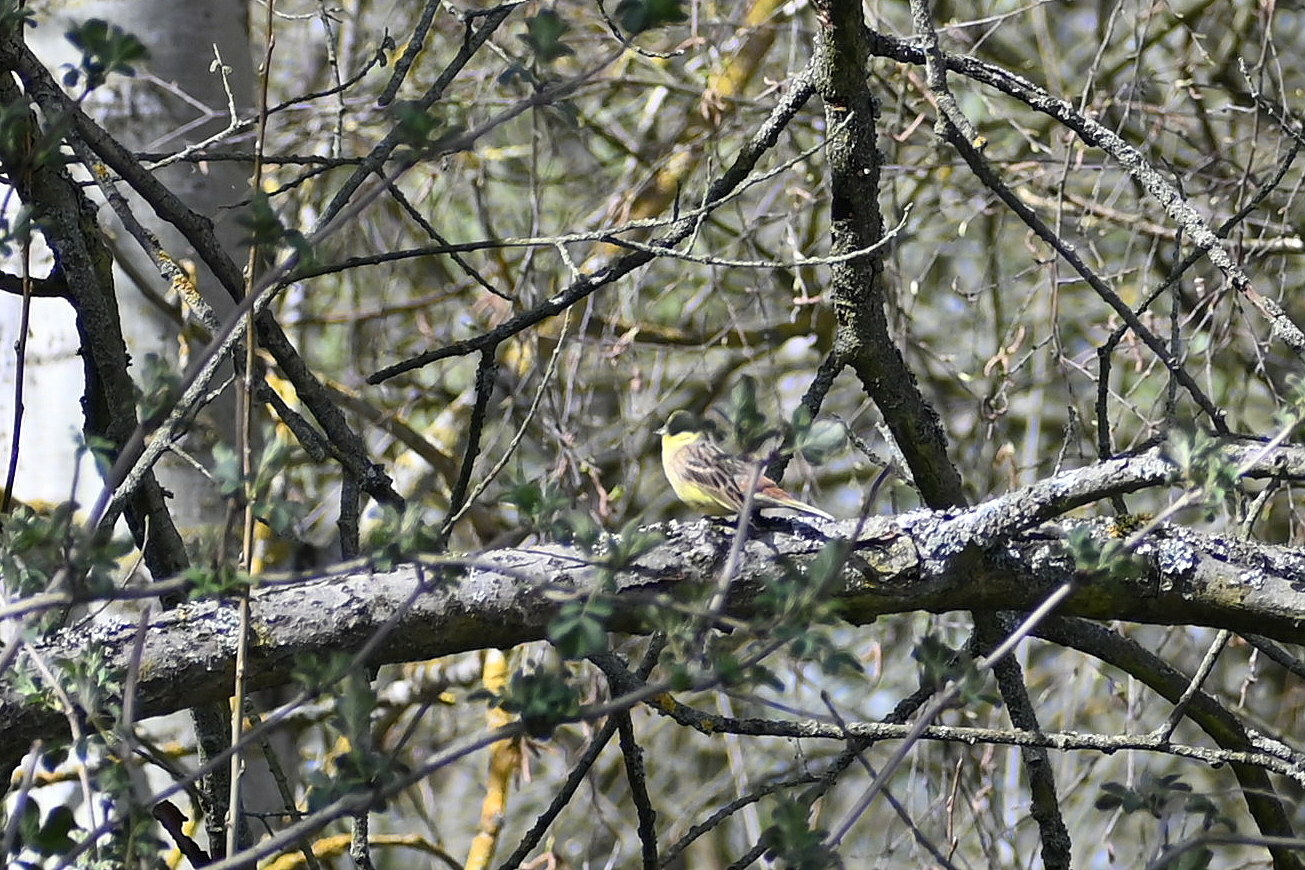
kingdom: Animalia
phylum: Chordata
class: Aves
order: Passeriformes
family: Emberizidae
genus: Emberiza
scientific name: Emberiza citrinella
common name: Yellowhammer
